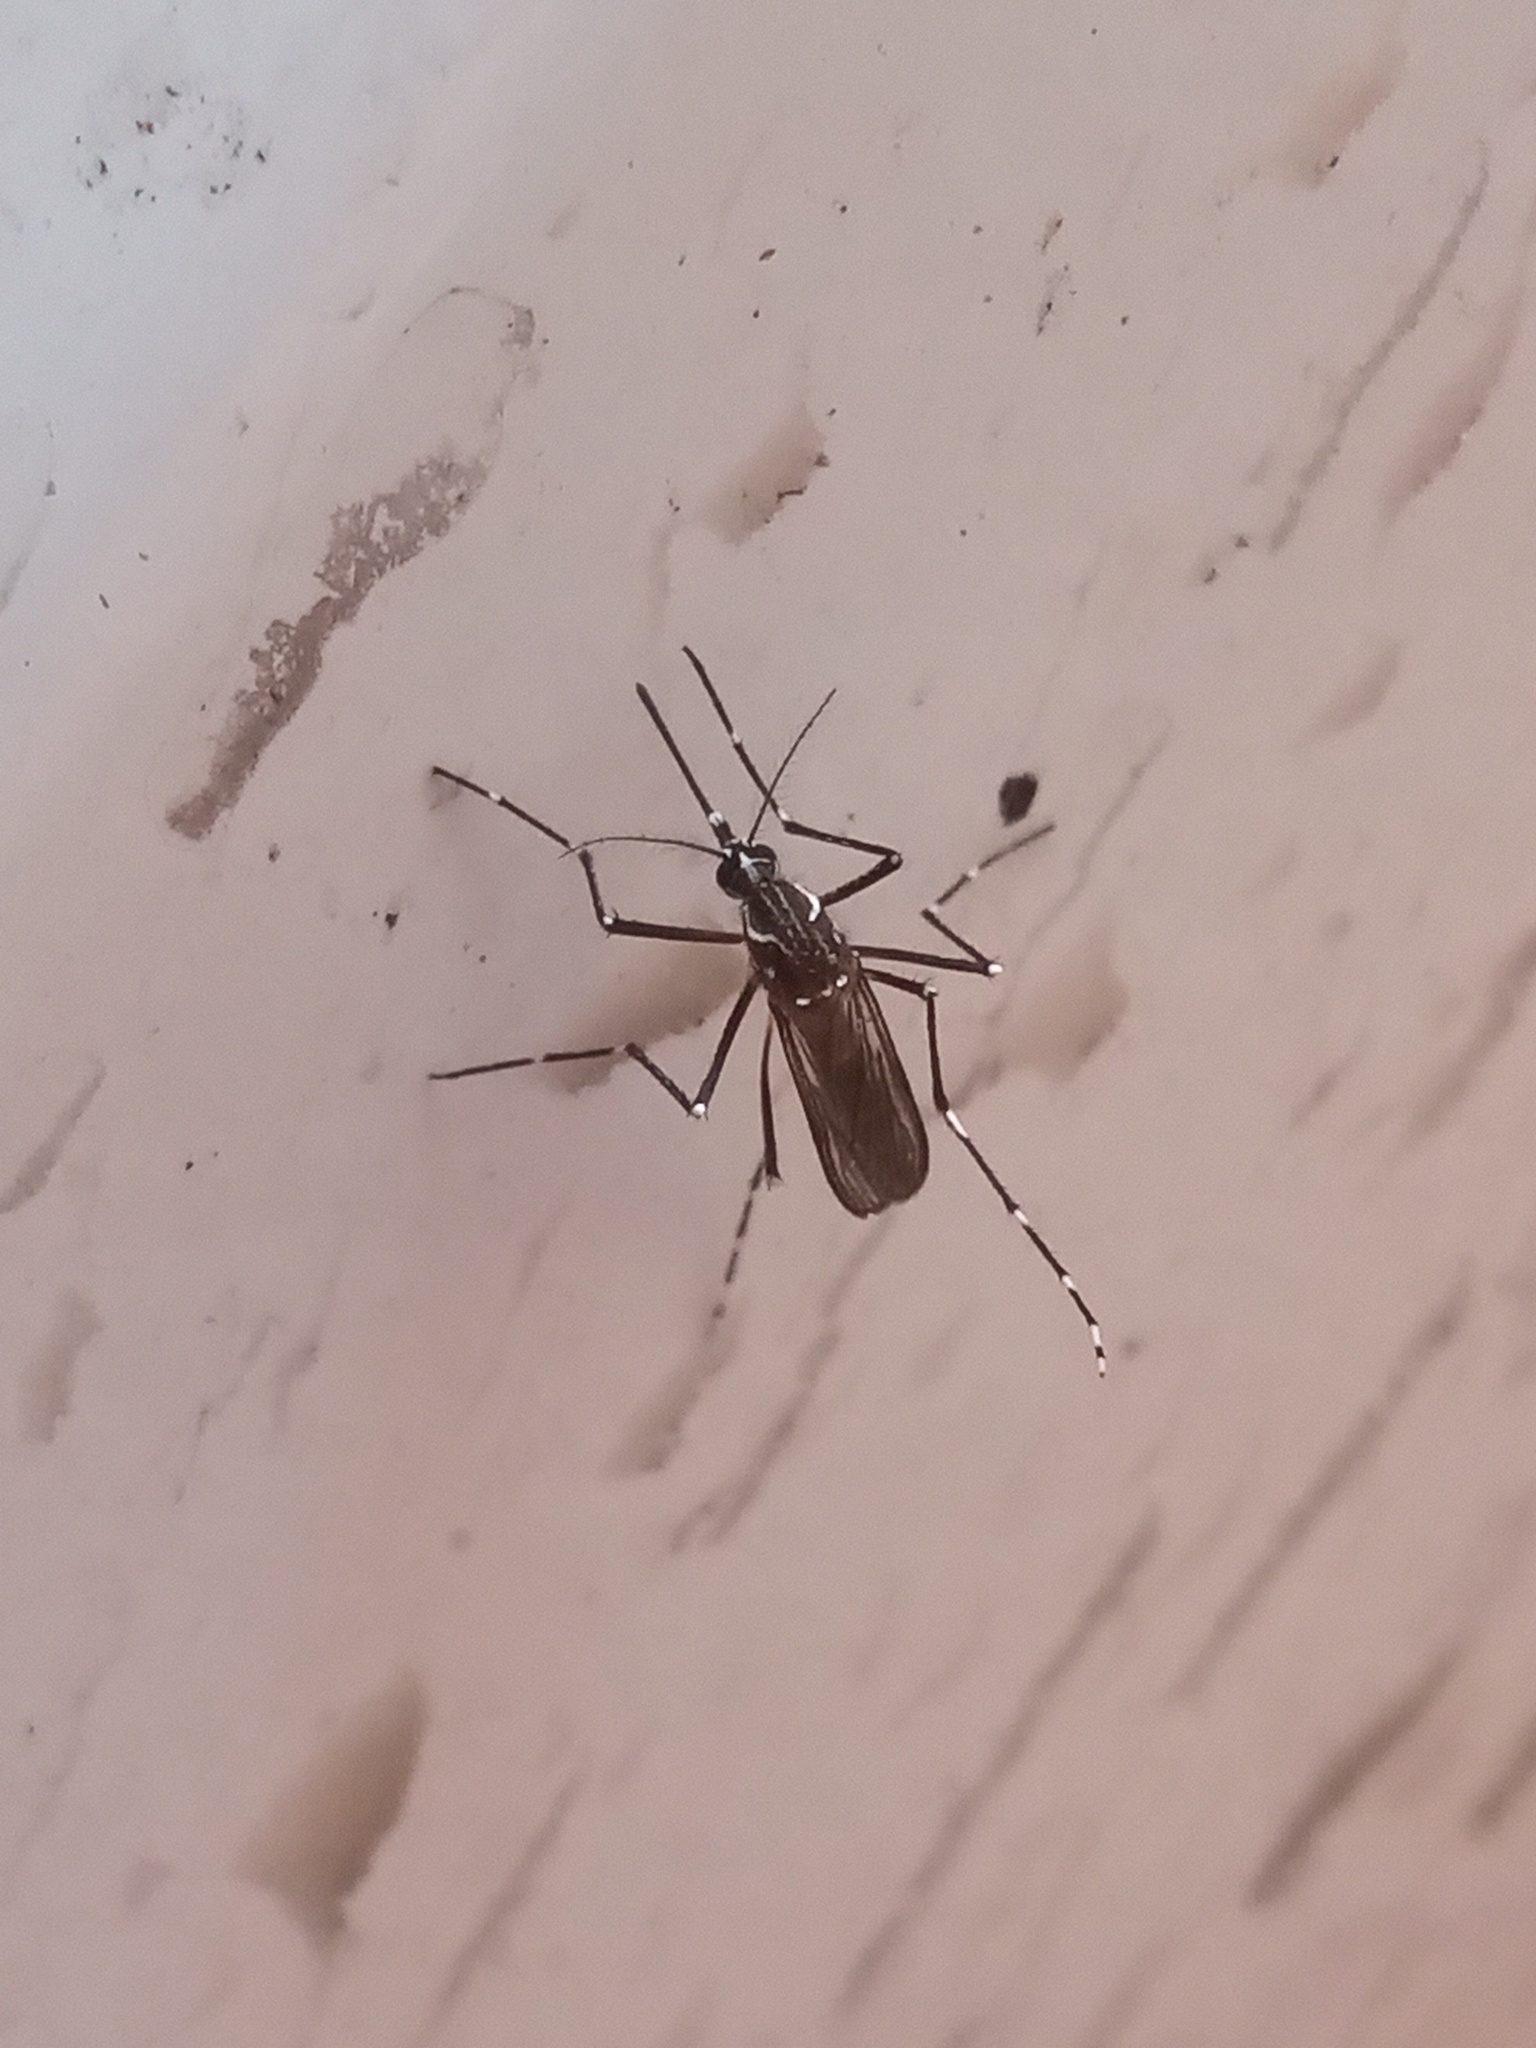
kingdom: Animalia
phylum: Arthropoda
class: Insecta
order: Diptera
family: Culicidae
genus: Aedes
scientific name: Aedes aegypti
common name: Yellow fever mosquito
